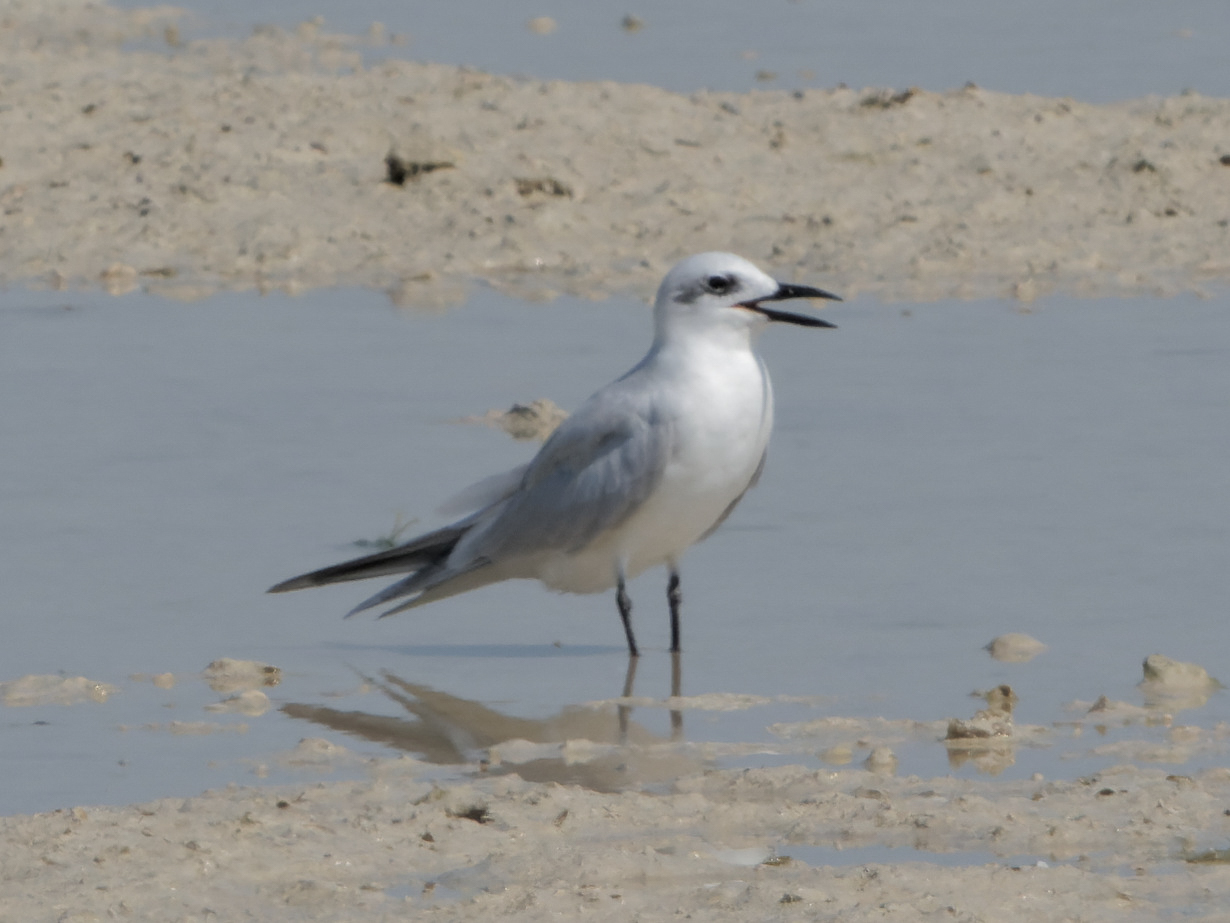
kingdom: Animalia
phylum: Chordata
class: Aves
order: Charadriiformes
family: Laridae
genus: Gelochelidon
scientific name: Gelochelidon nilotica
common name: Gull-billed tern
